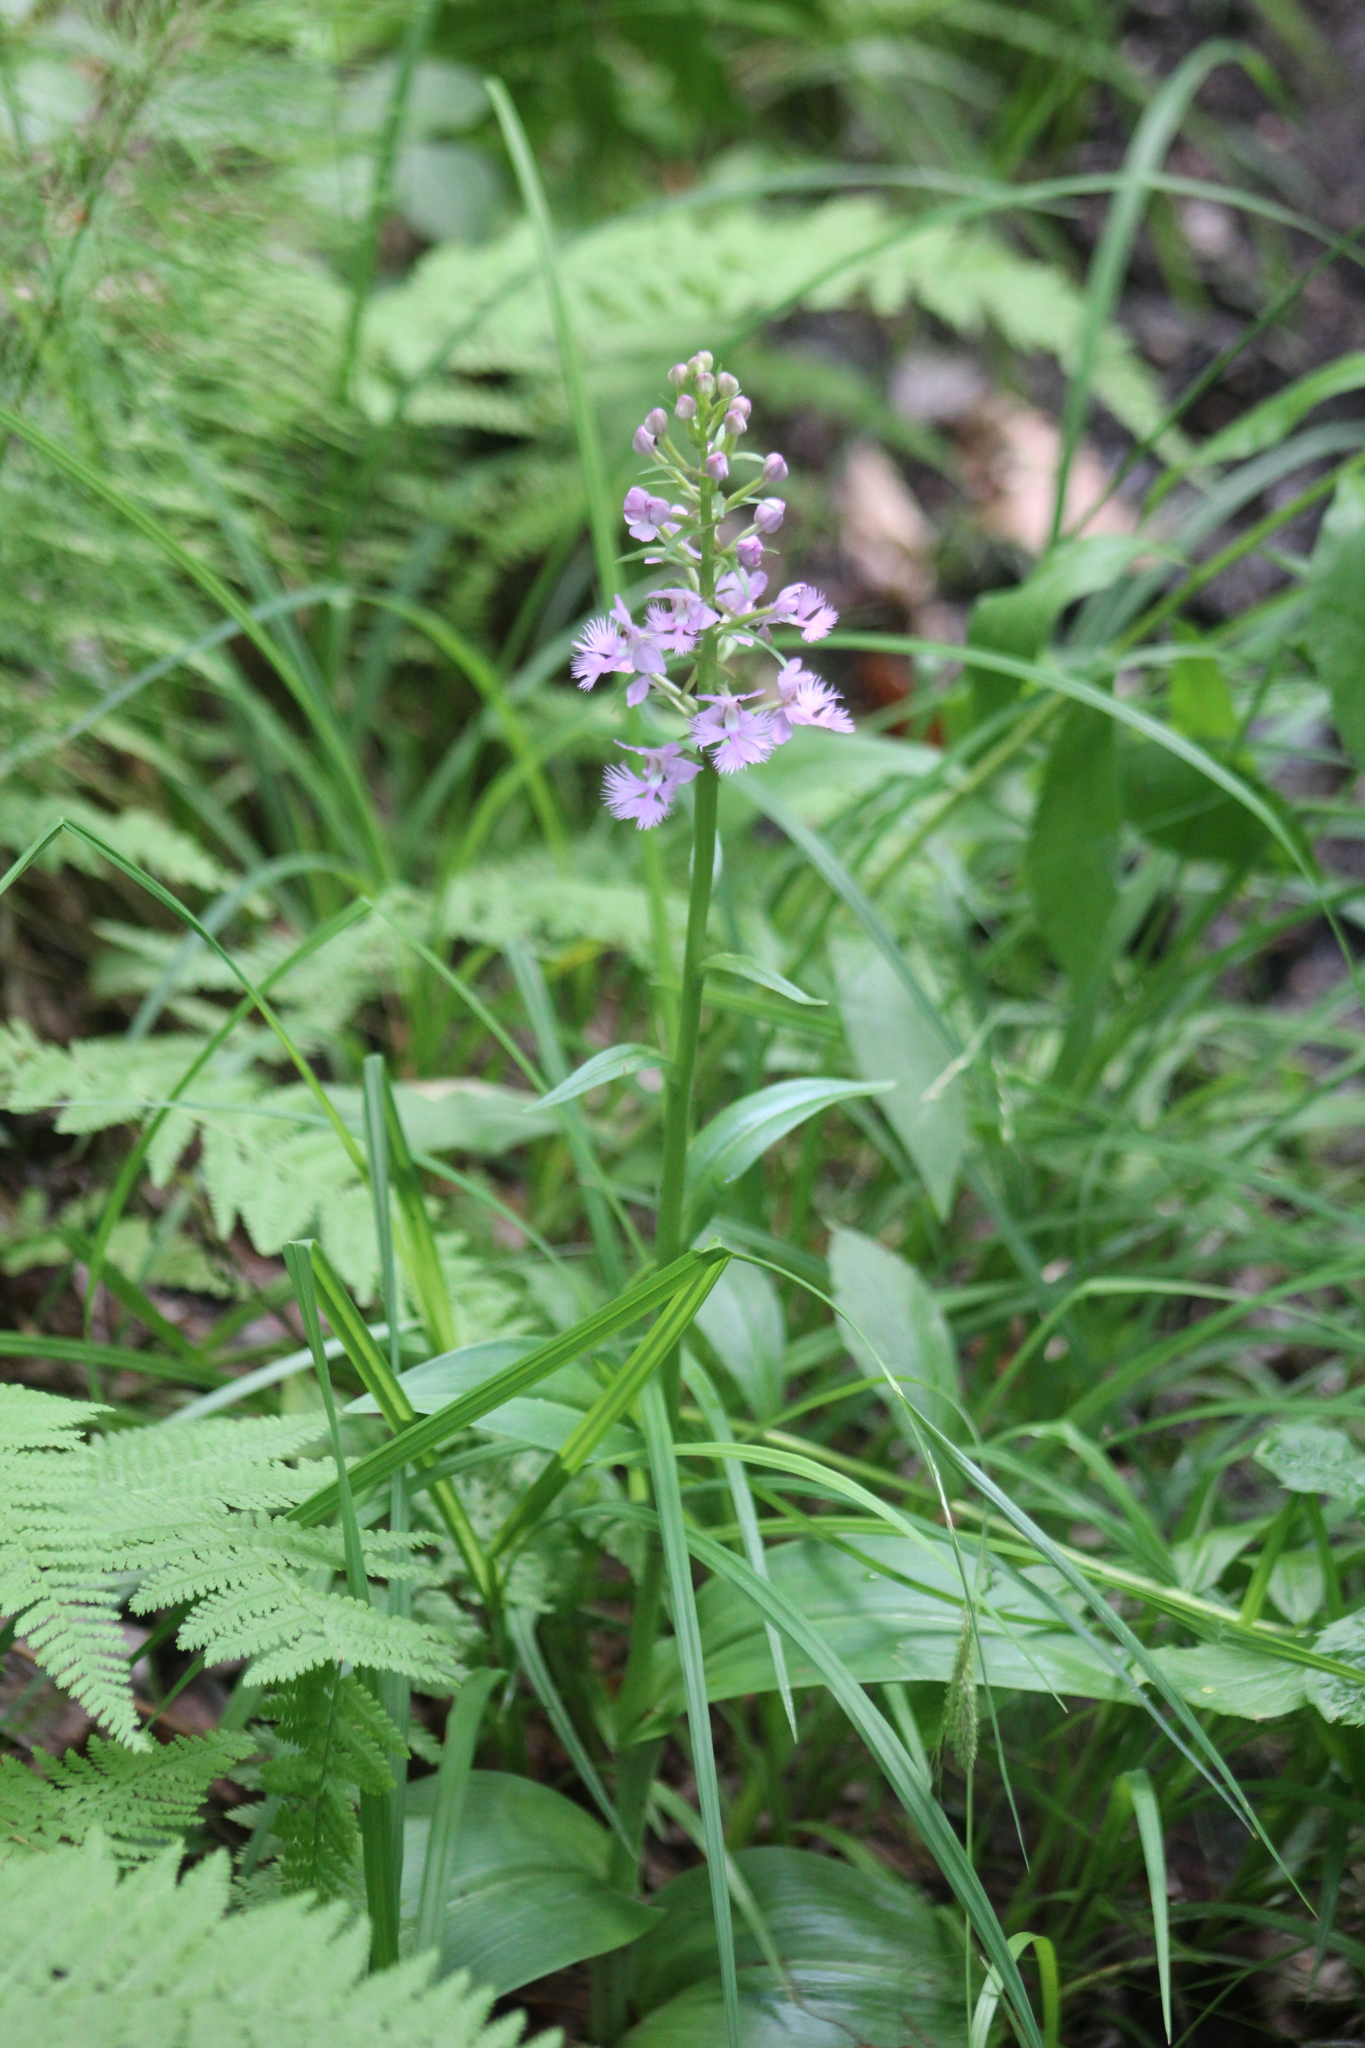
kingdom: Plantae
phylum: Tracheophyta
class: Liliopsida
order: Asparagales
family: Orchidaceae
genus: Platanthera
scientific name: Platanthera grandiflora
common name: Greater purple fringed orchid
